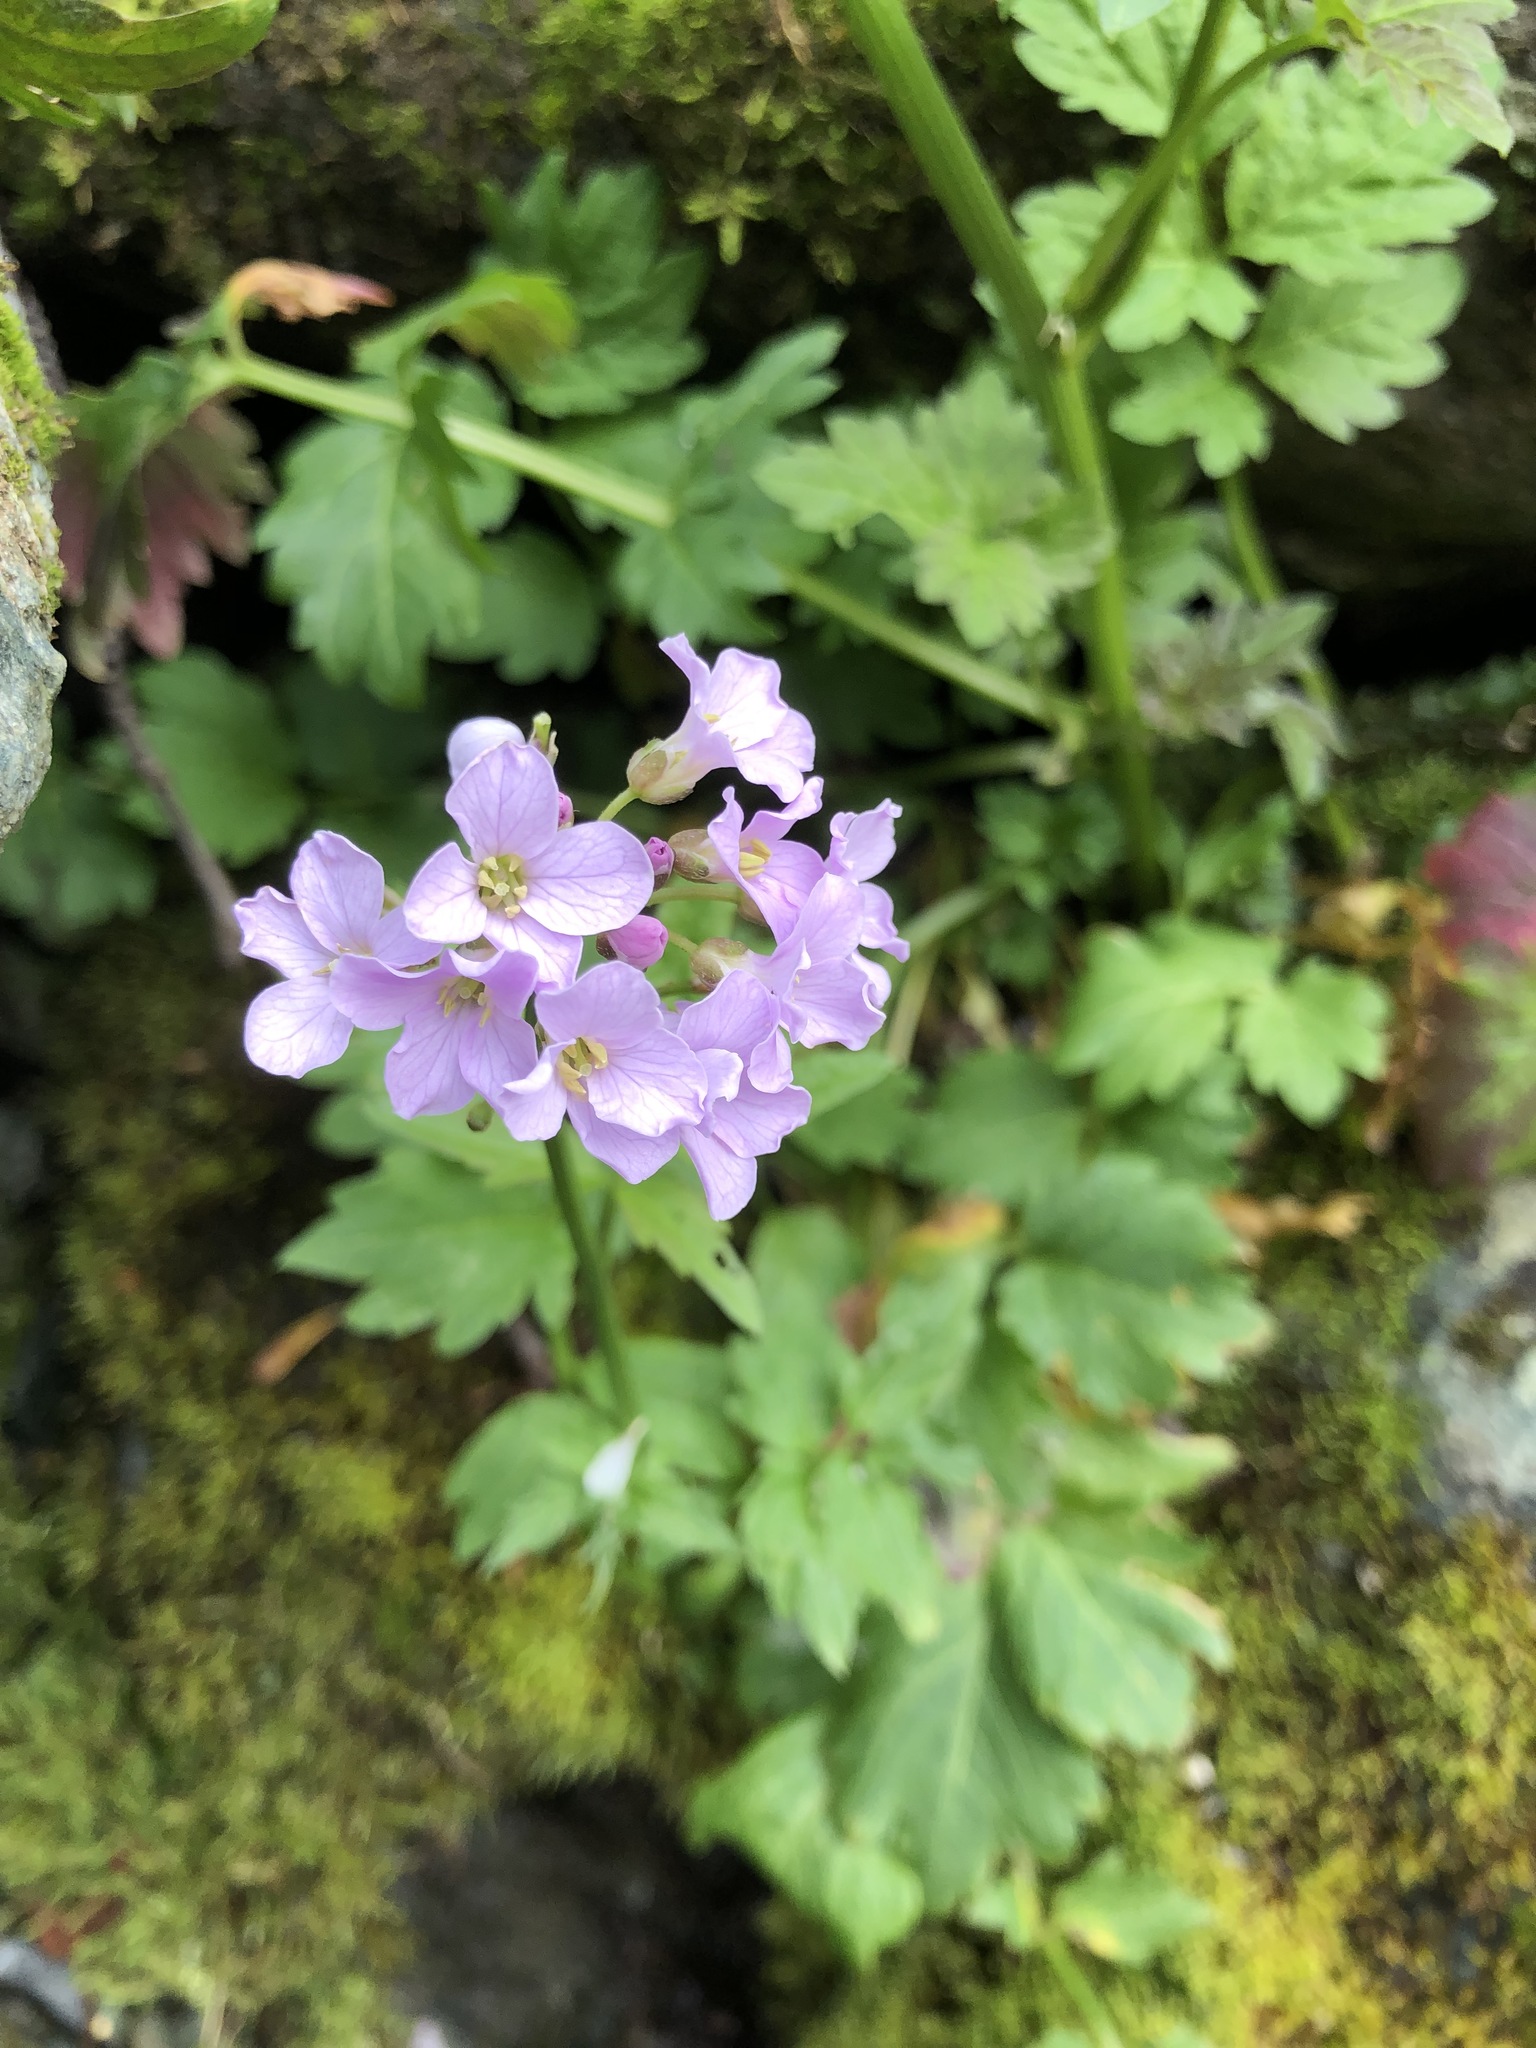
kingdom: Plantae
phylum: Tracheophyta
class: Magnoliopsida
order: Brassicales
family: Brassicaceae
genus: Cardamine
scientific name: Cardamine macrophylla
